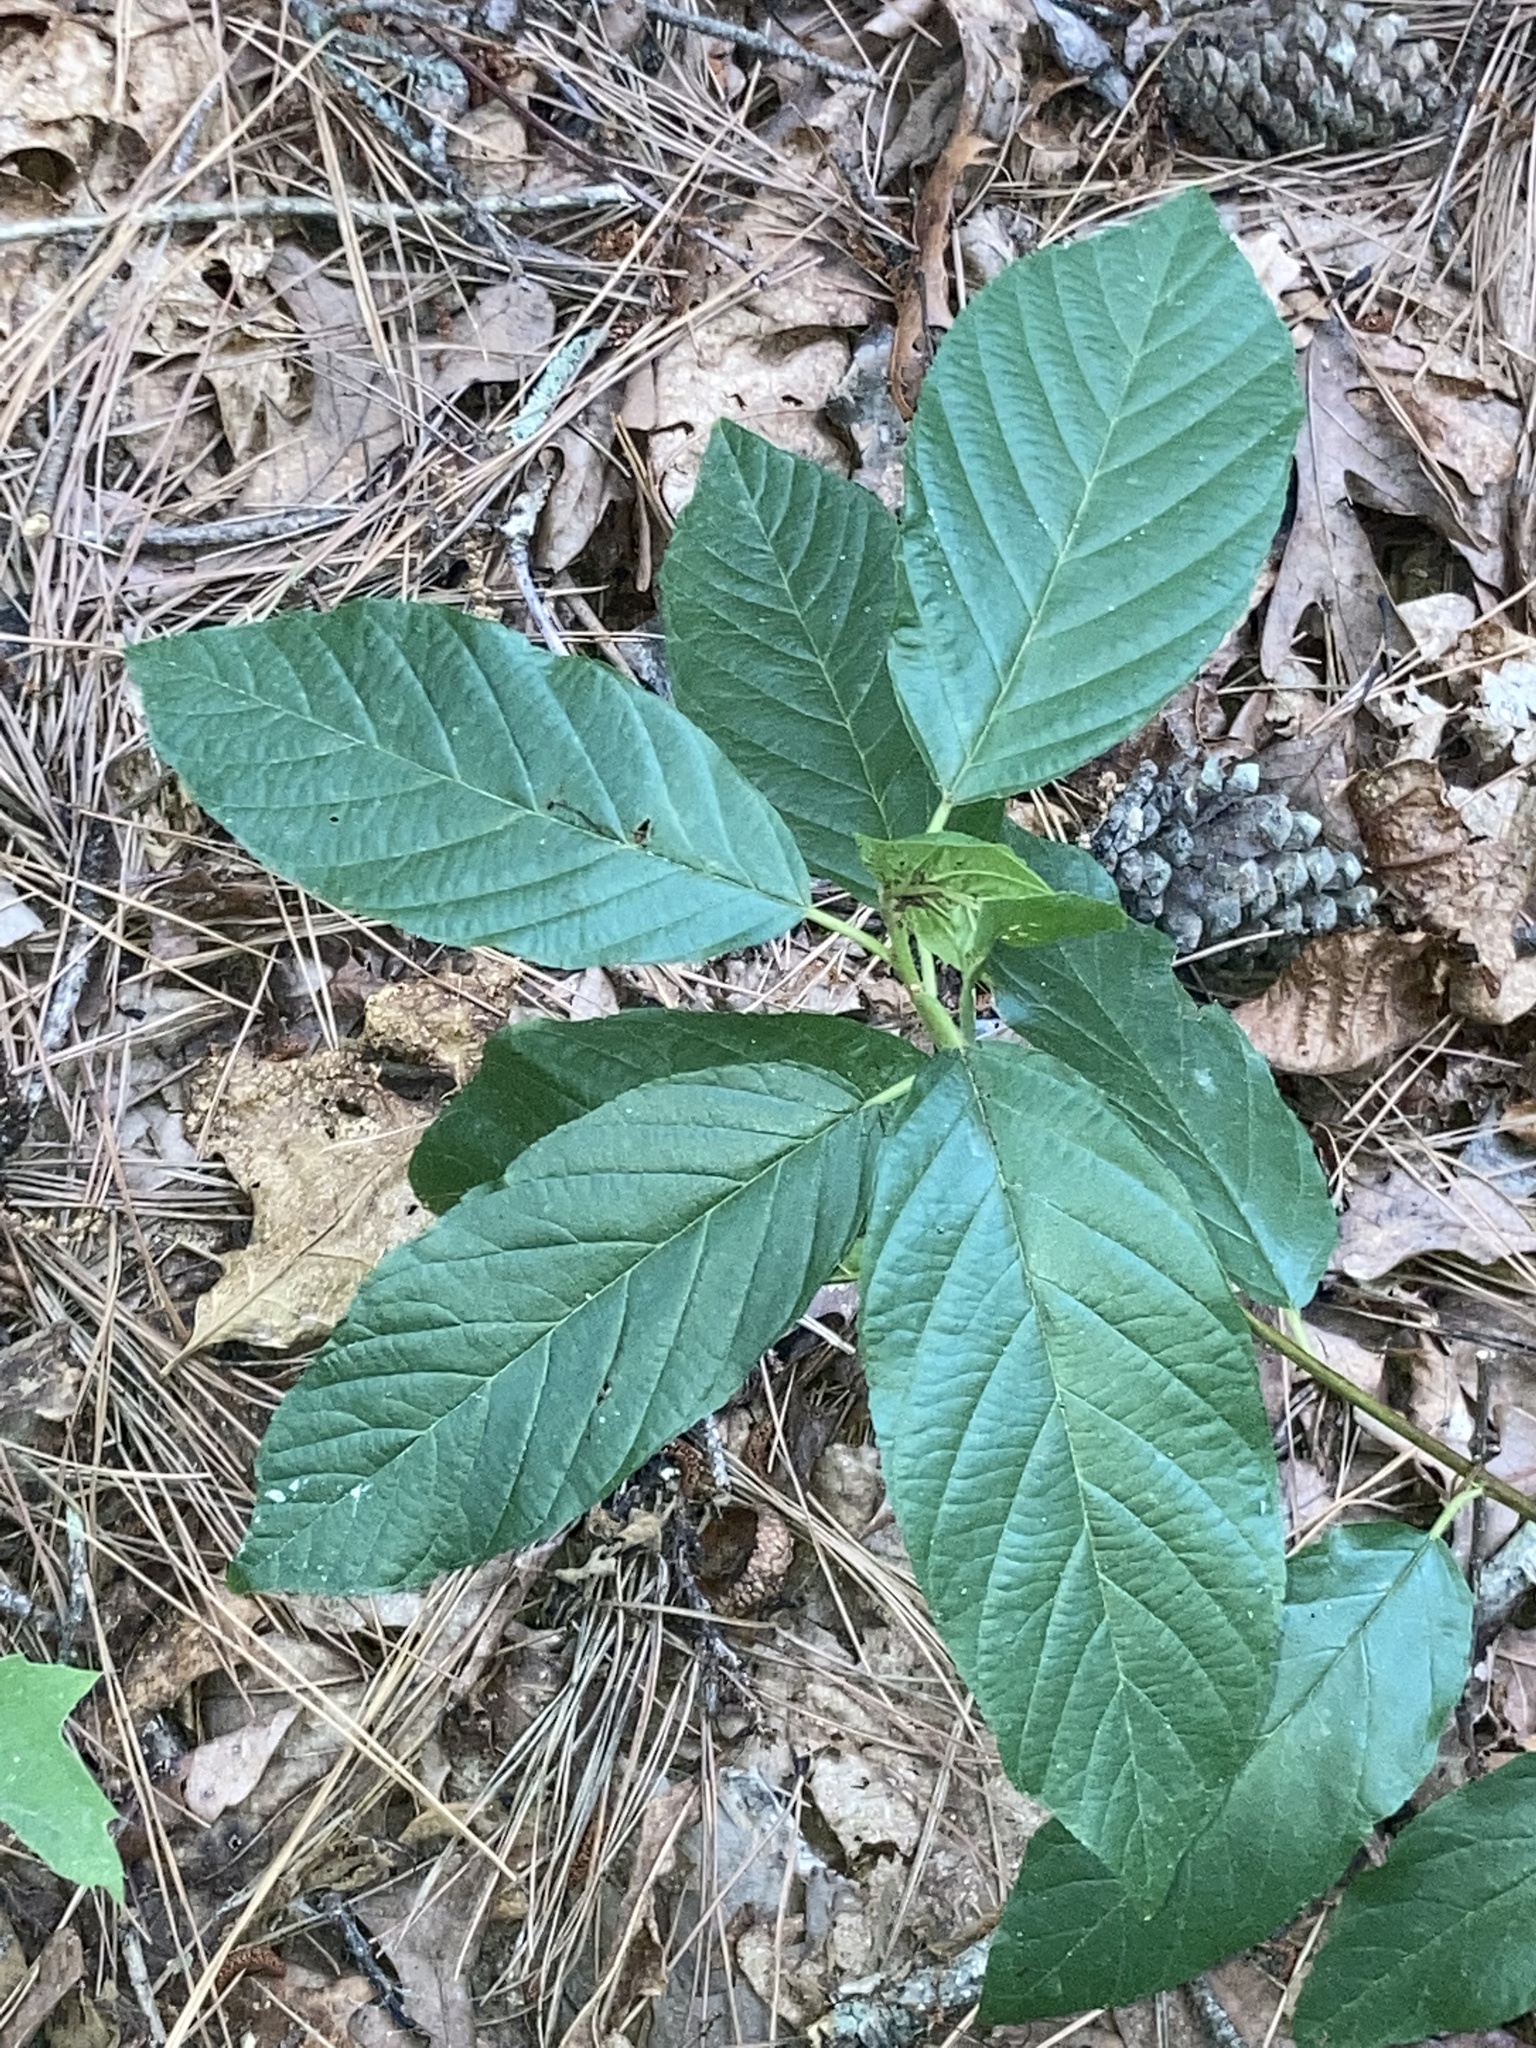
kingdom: Plantae
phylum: Tracheophyta
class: Magnoliopsida
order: Rosales
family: Rhamnaceae
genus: Frangula
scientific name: Frangula caroliniana
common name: Carolina buckthorn
